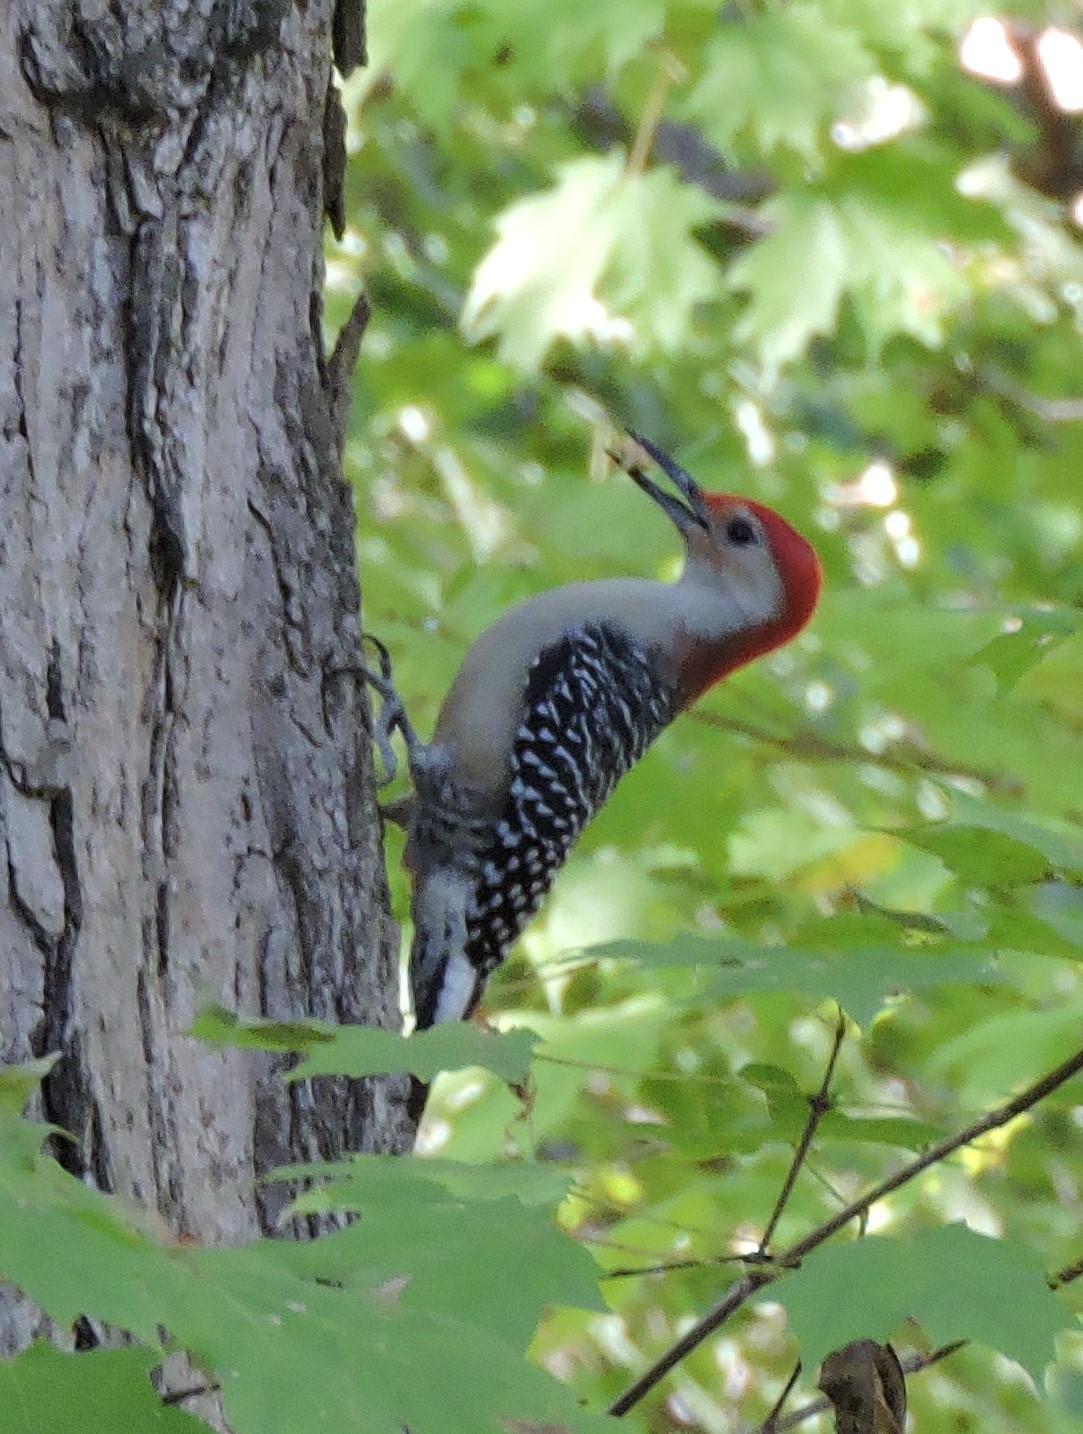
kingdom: Animalia
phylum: Chordata
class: Aves
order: Piciformes
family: Picidae
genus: Melanerpes
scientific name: Melanerpes carolinus
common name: Red-bellied woodpecker
